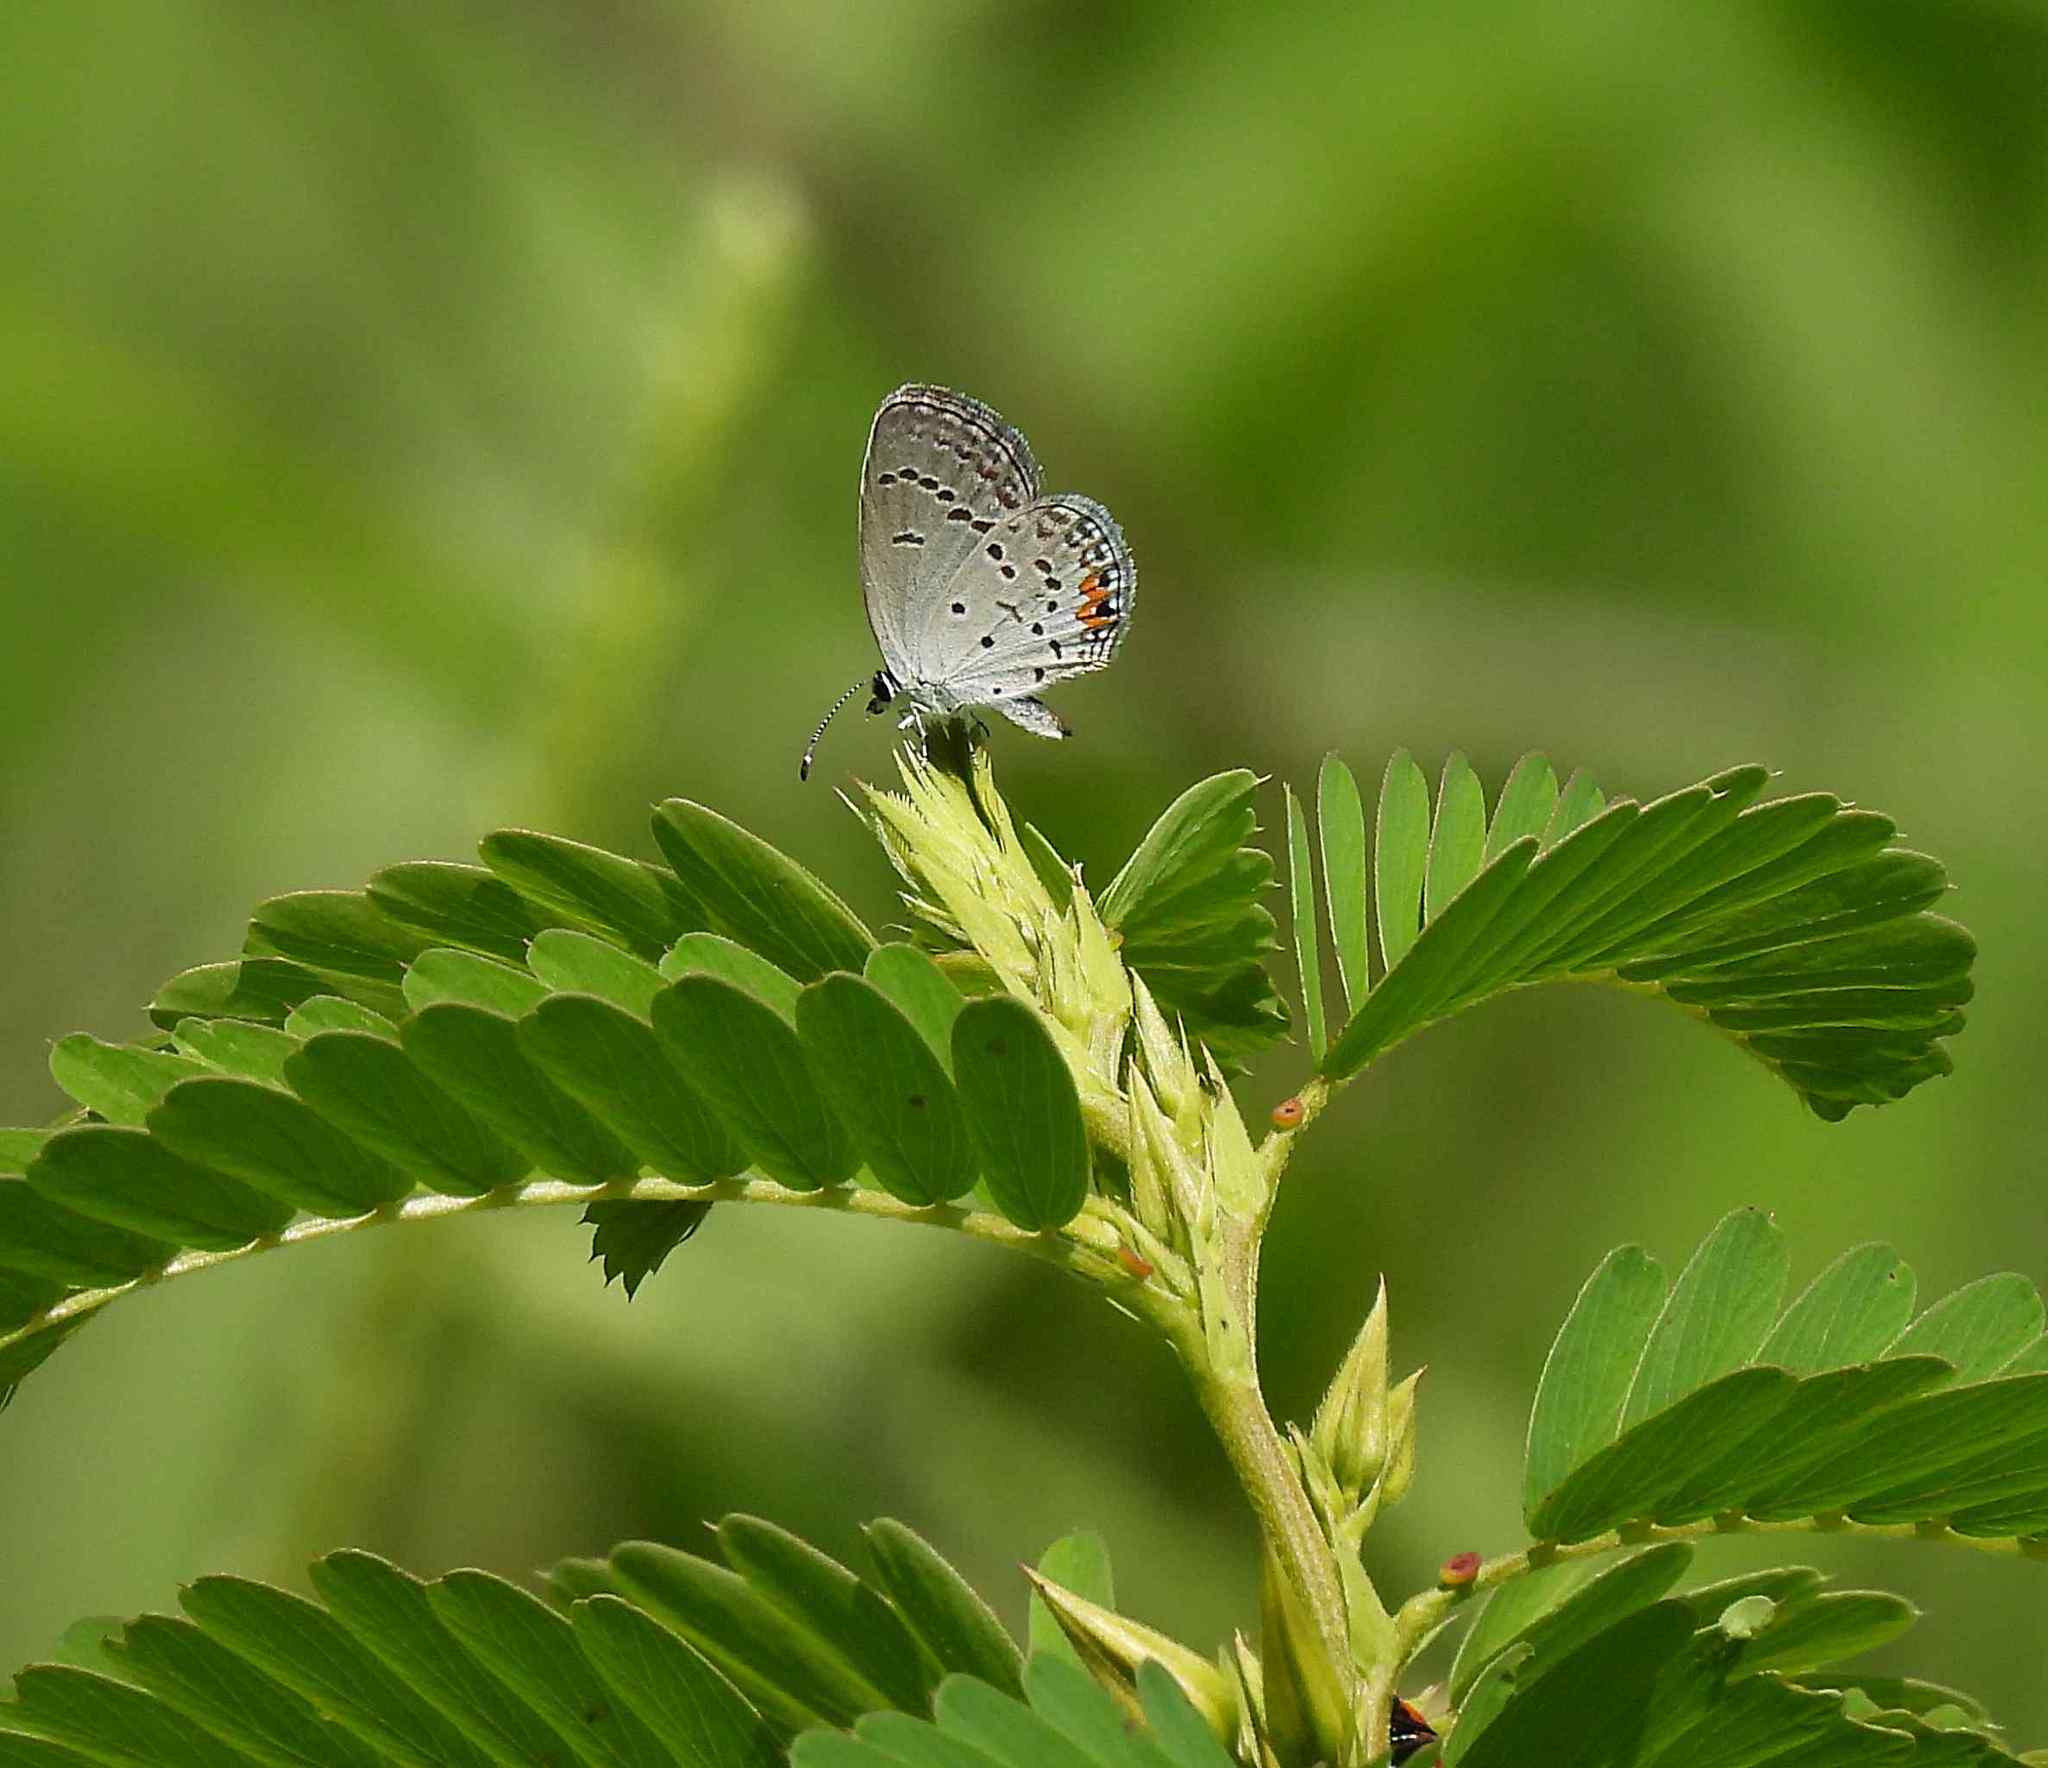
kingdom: Animalia
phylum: Arthropoda
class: Insecta
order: Lepidoptera
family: Lycaenidae
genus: Elkalyce
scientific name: Elkalyce comyntas
